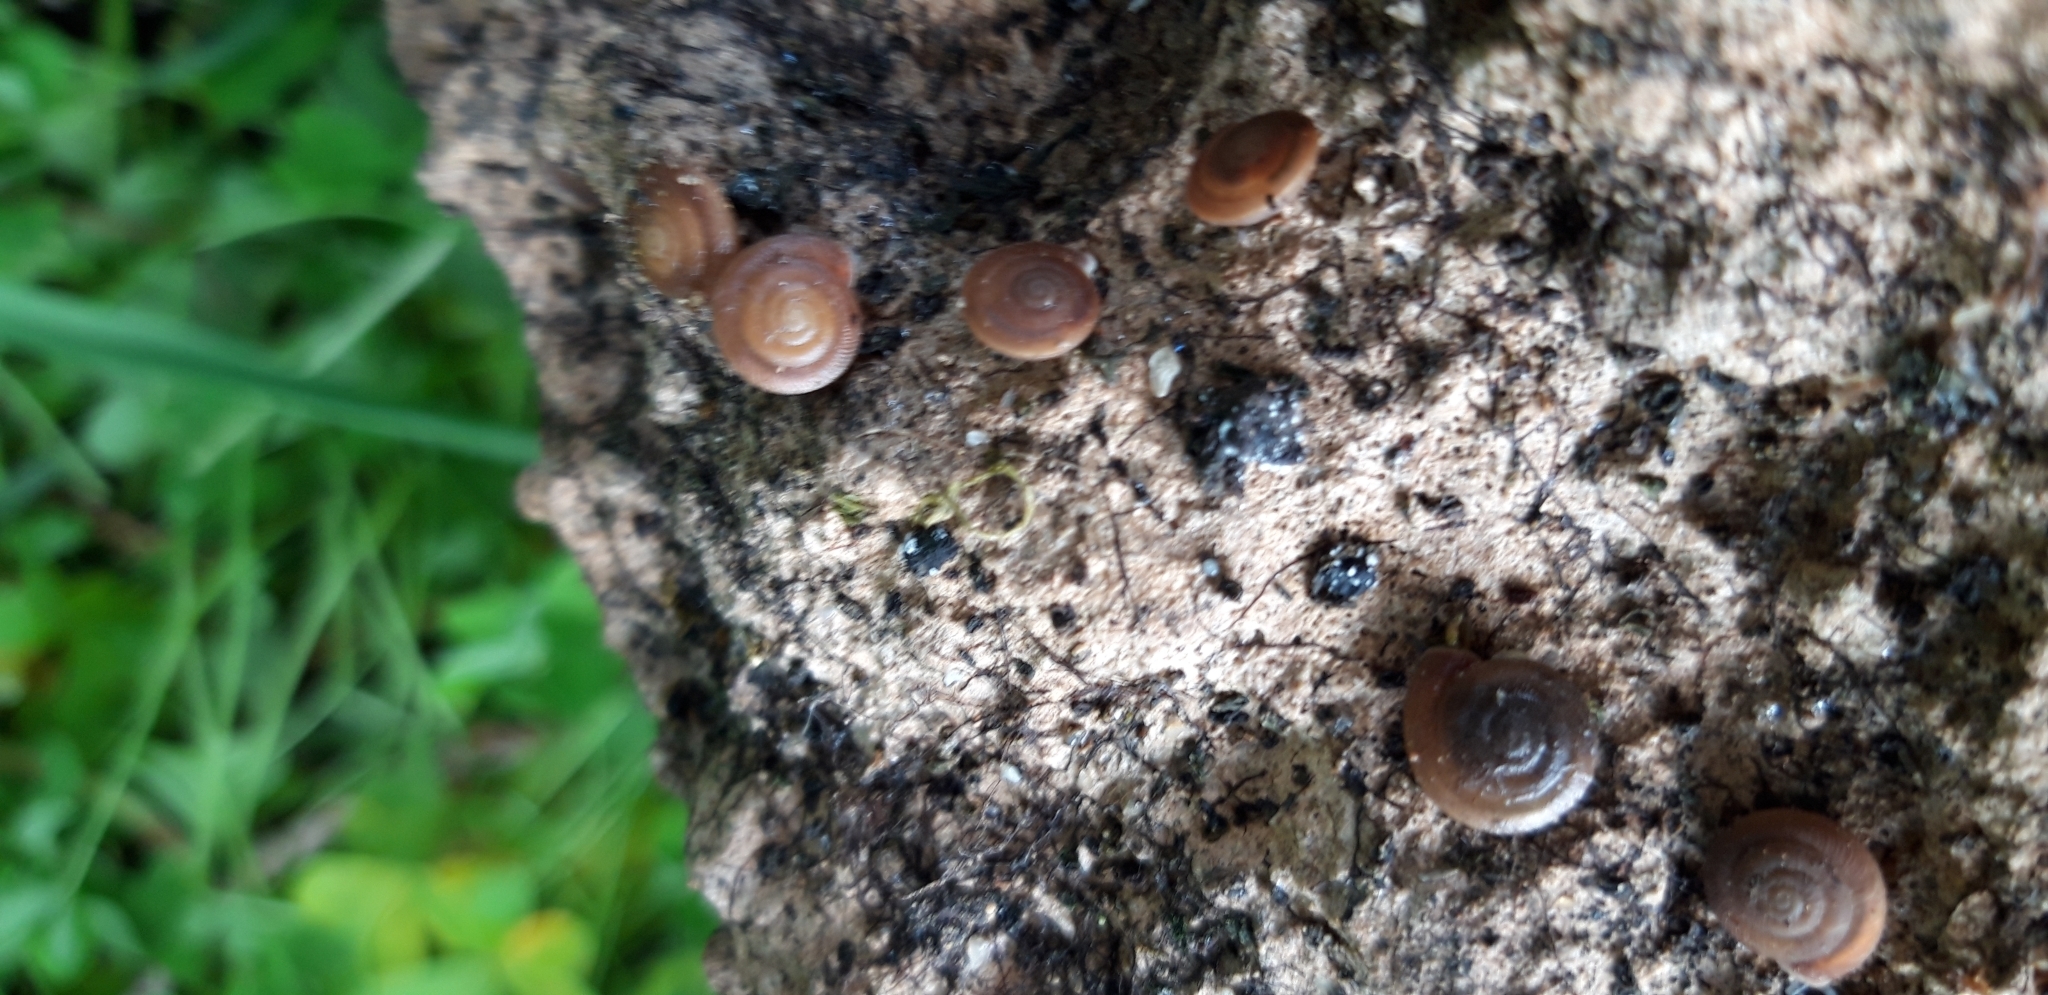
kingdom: Animalia
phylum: Mollusca
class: Gastropoda
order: Stylommatophora
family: Trissexodontidae
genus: Caracollina
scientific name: Caracollina lenticula
